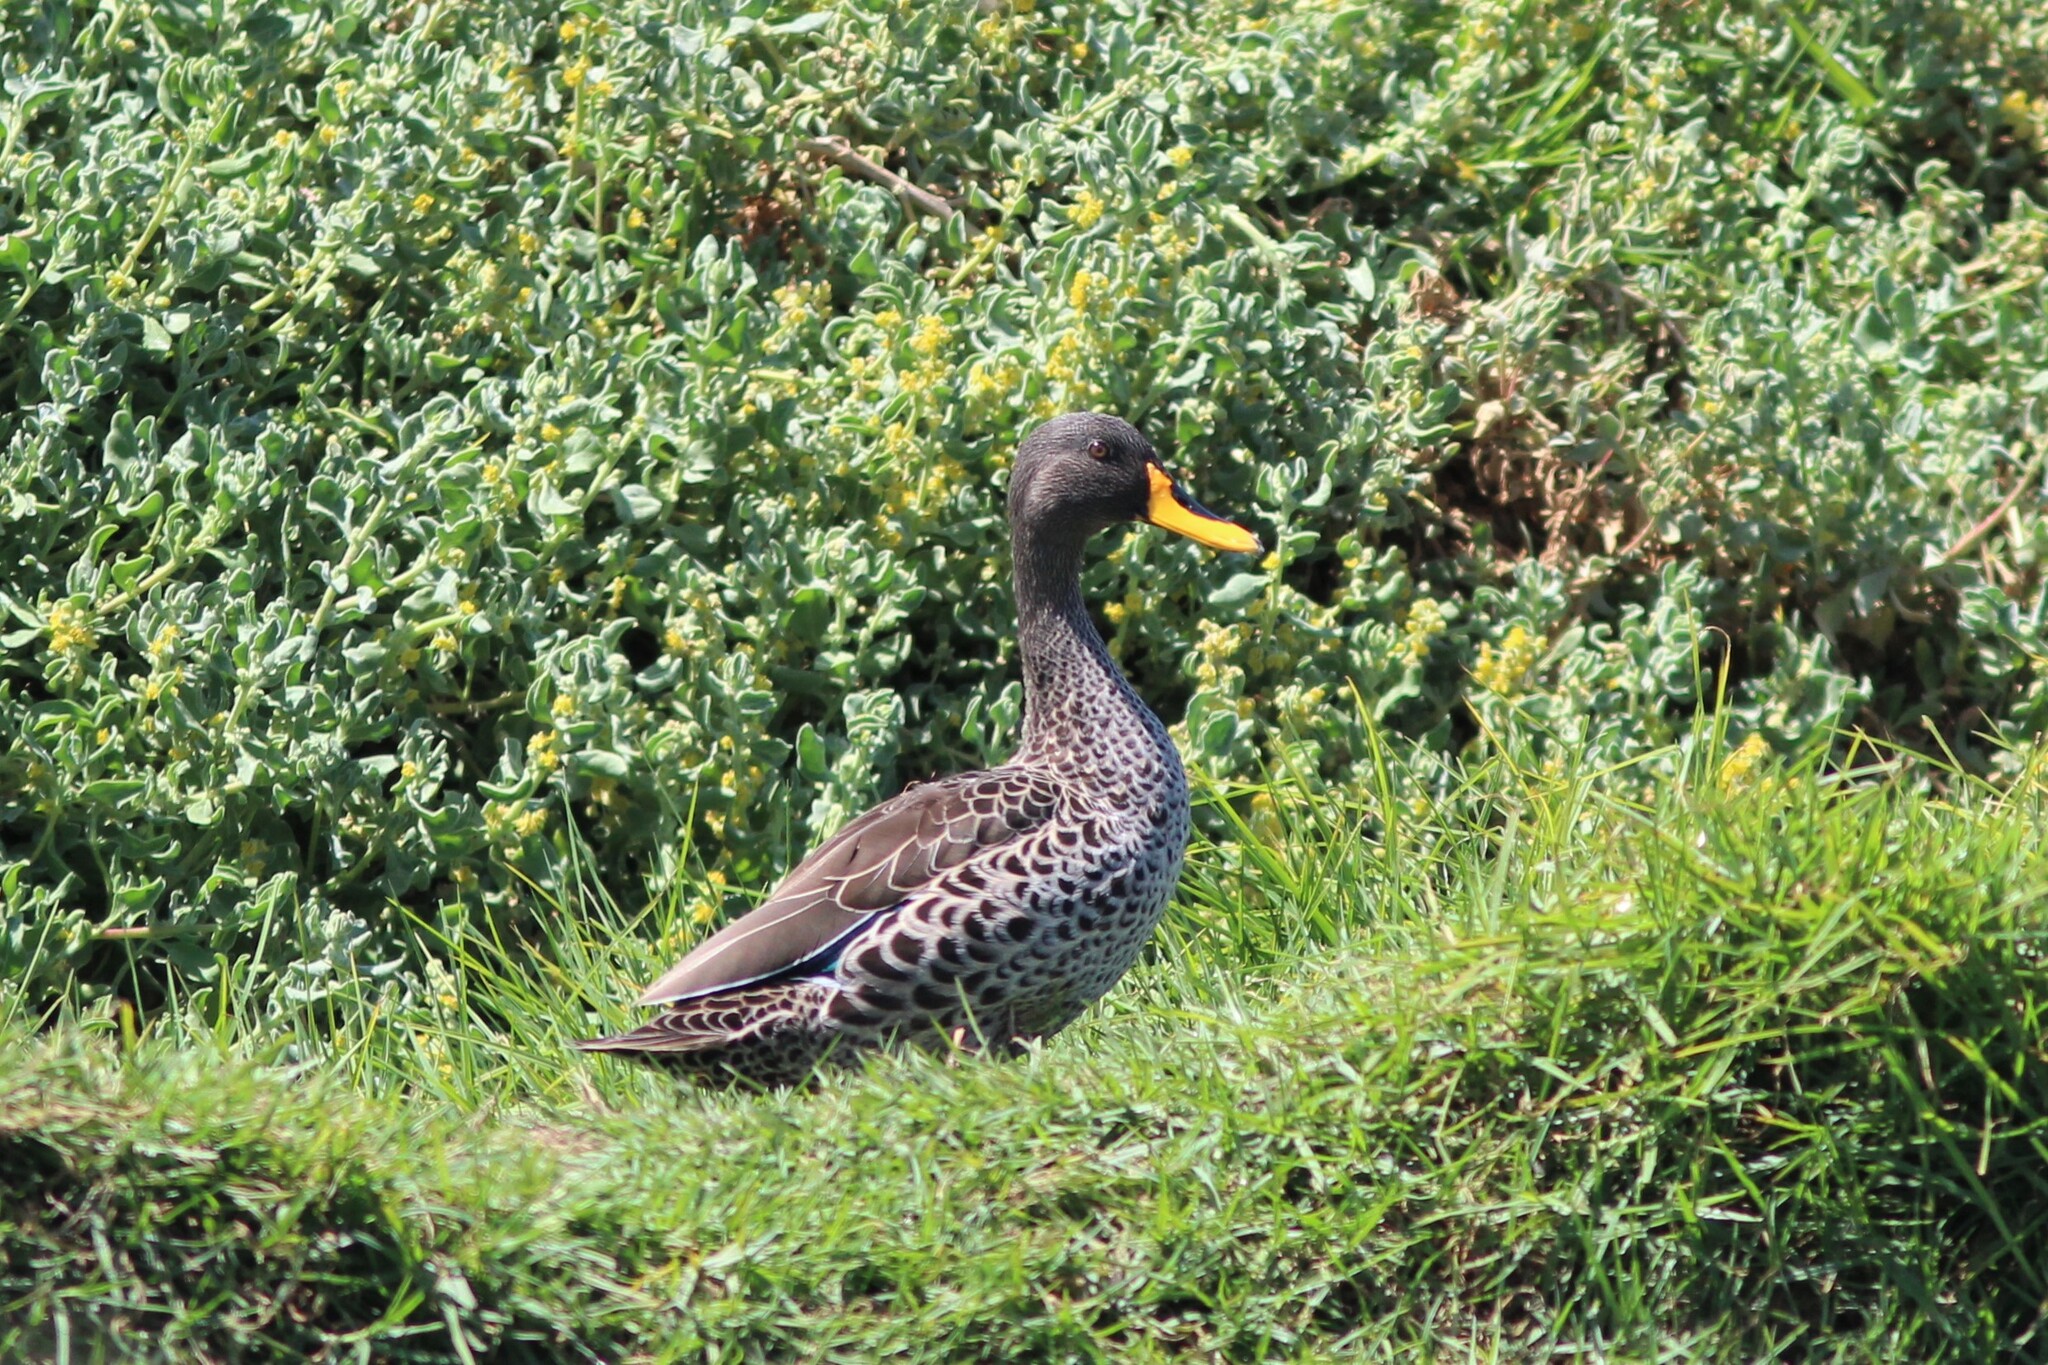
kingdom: Animalia
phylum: Chordata
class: Aves
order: Anseriformes
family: Anatidae
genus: Anas
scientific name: Anas undulata
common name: Yellow-billed duck
